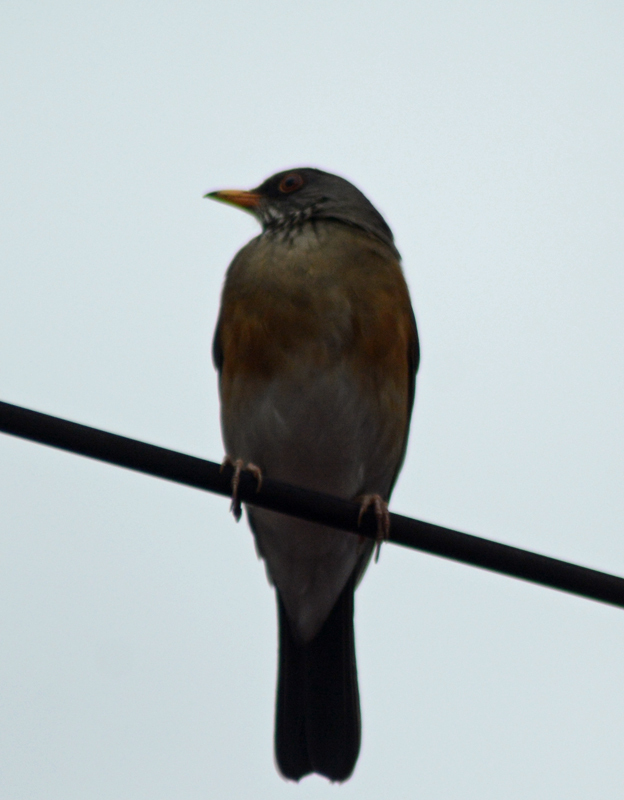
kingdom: Animalia
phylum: Chordata
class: Aves
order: Passeriformes
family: Turdidae
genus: Turdus
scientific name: Turdus rufopalliatus
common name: Rufous-backed robin
